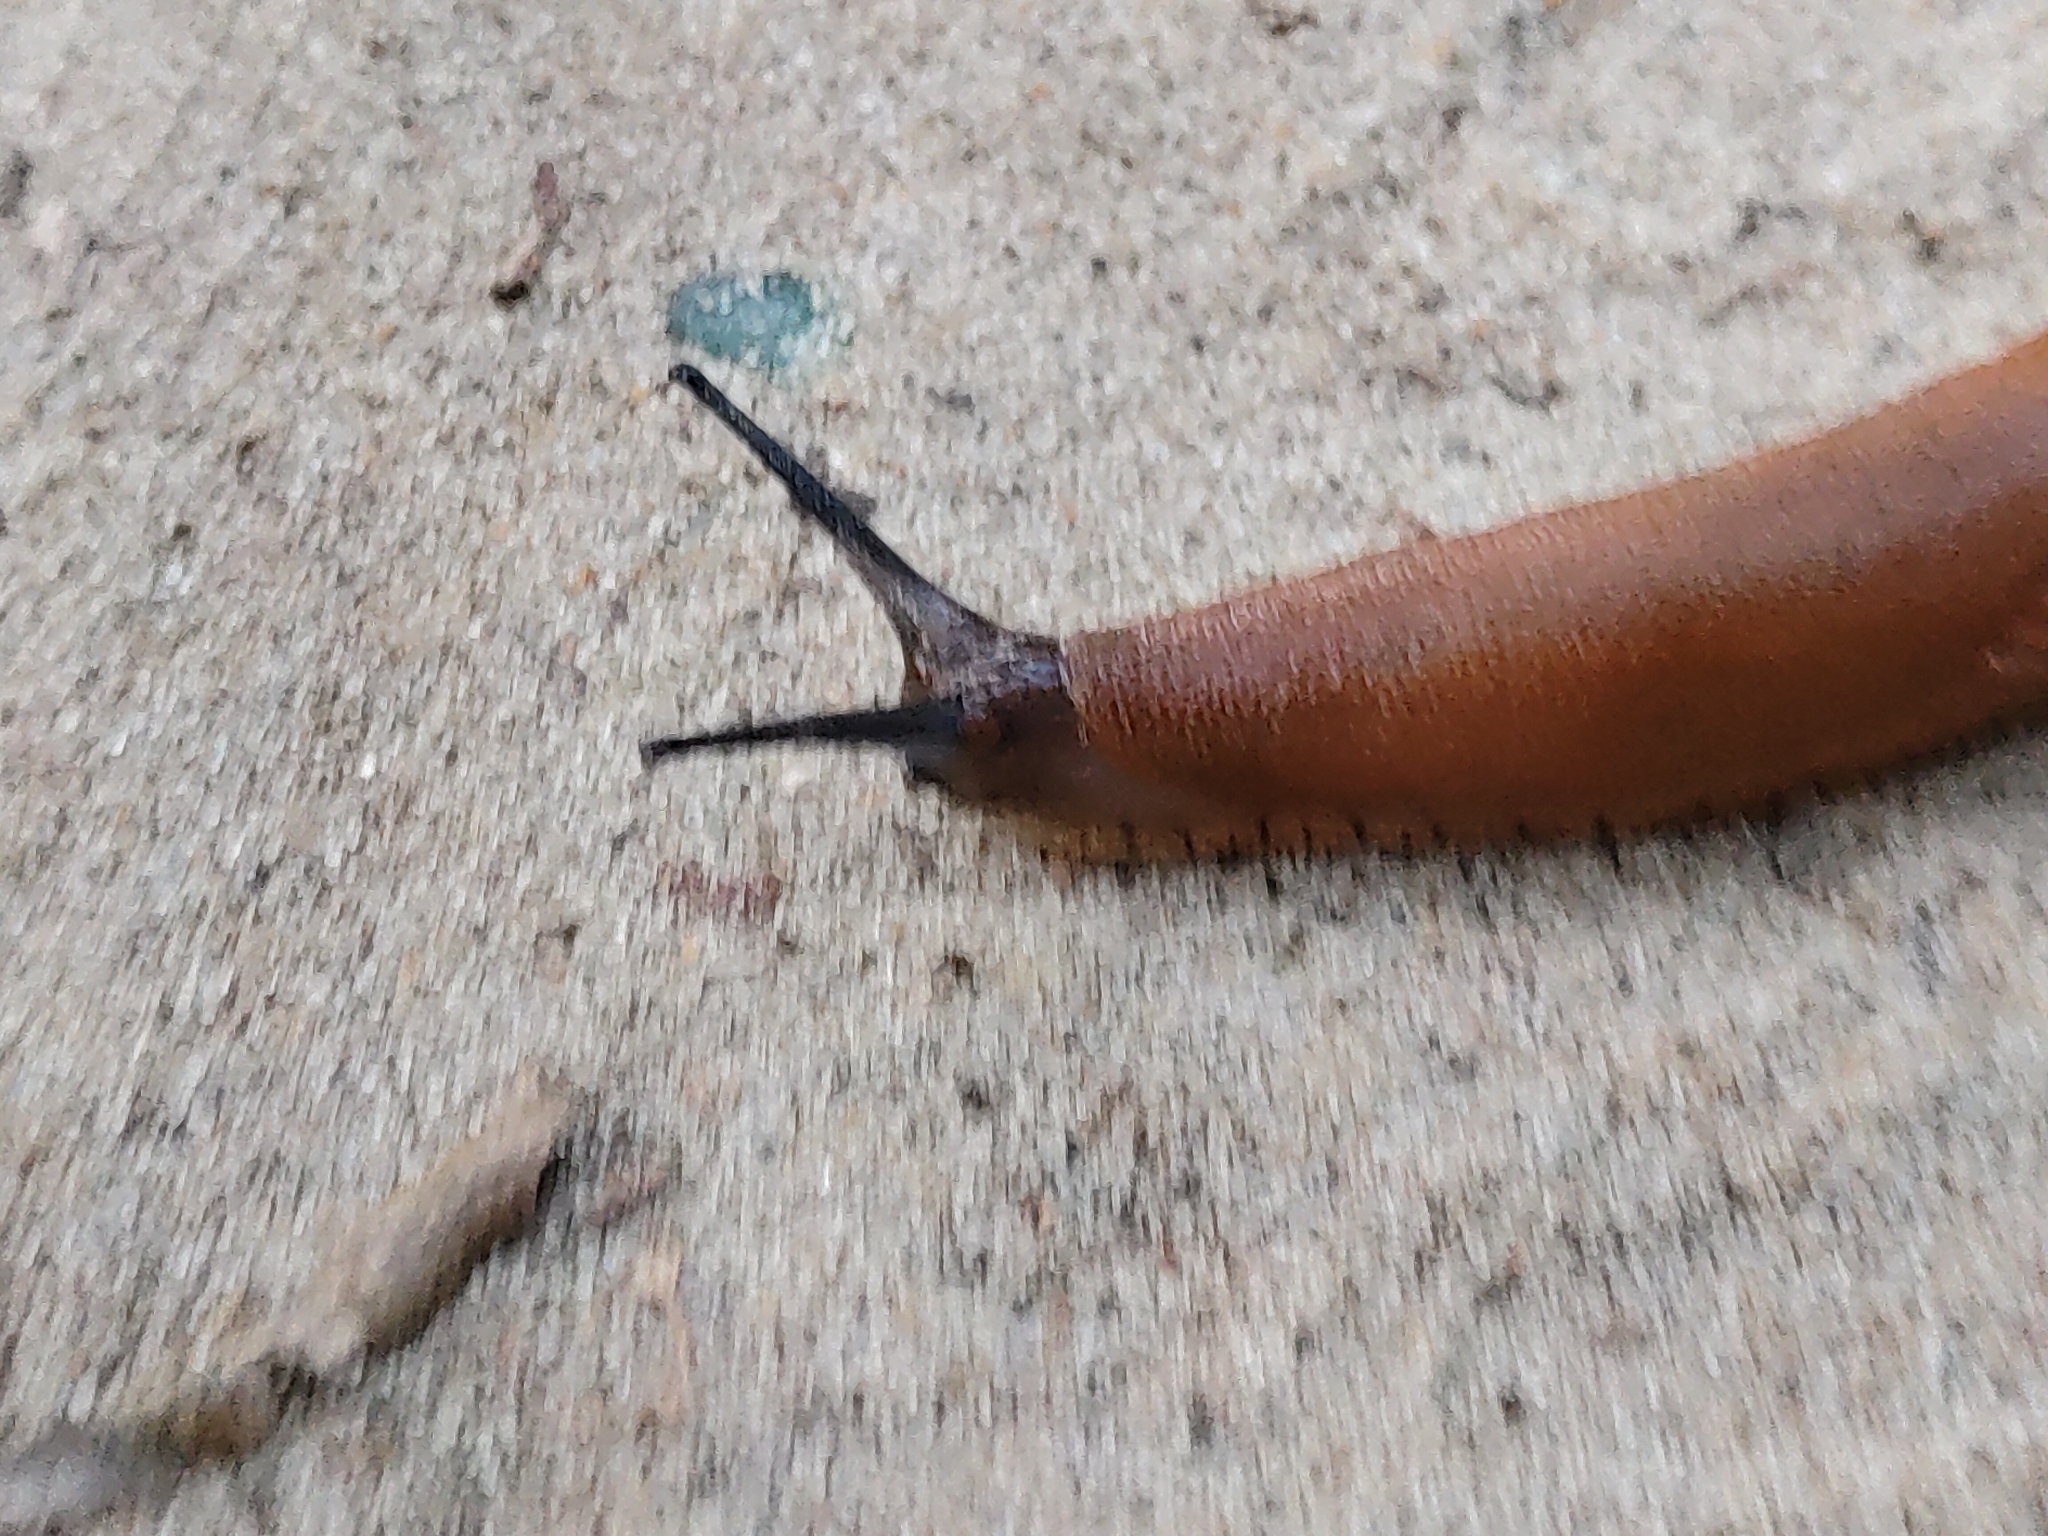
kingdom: Animalia
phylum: Mollusca
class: Gastropoda
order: Stylommatophora
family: Arionidae
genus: Arion
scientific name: Arion vulgaris
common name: Lusitanian slug
